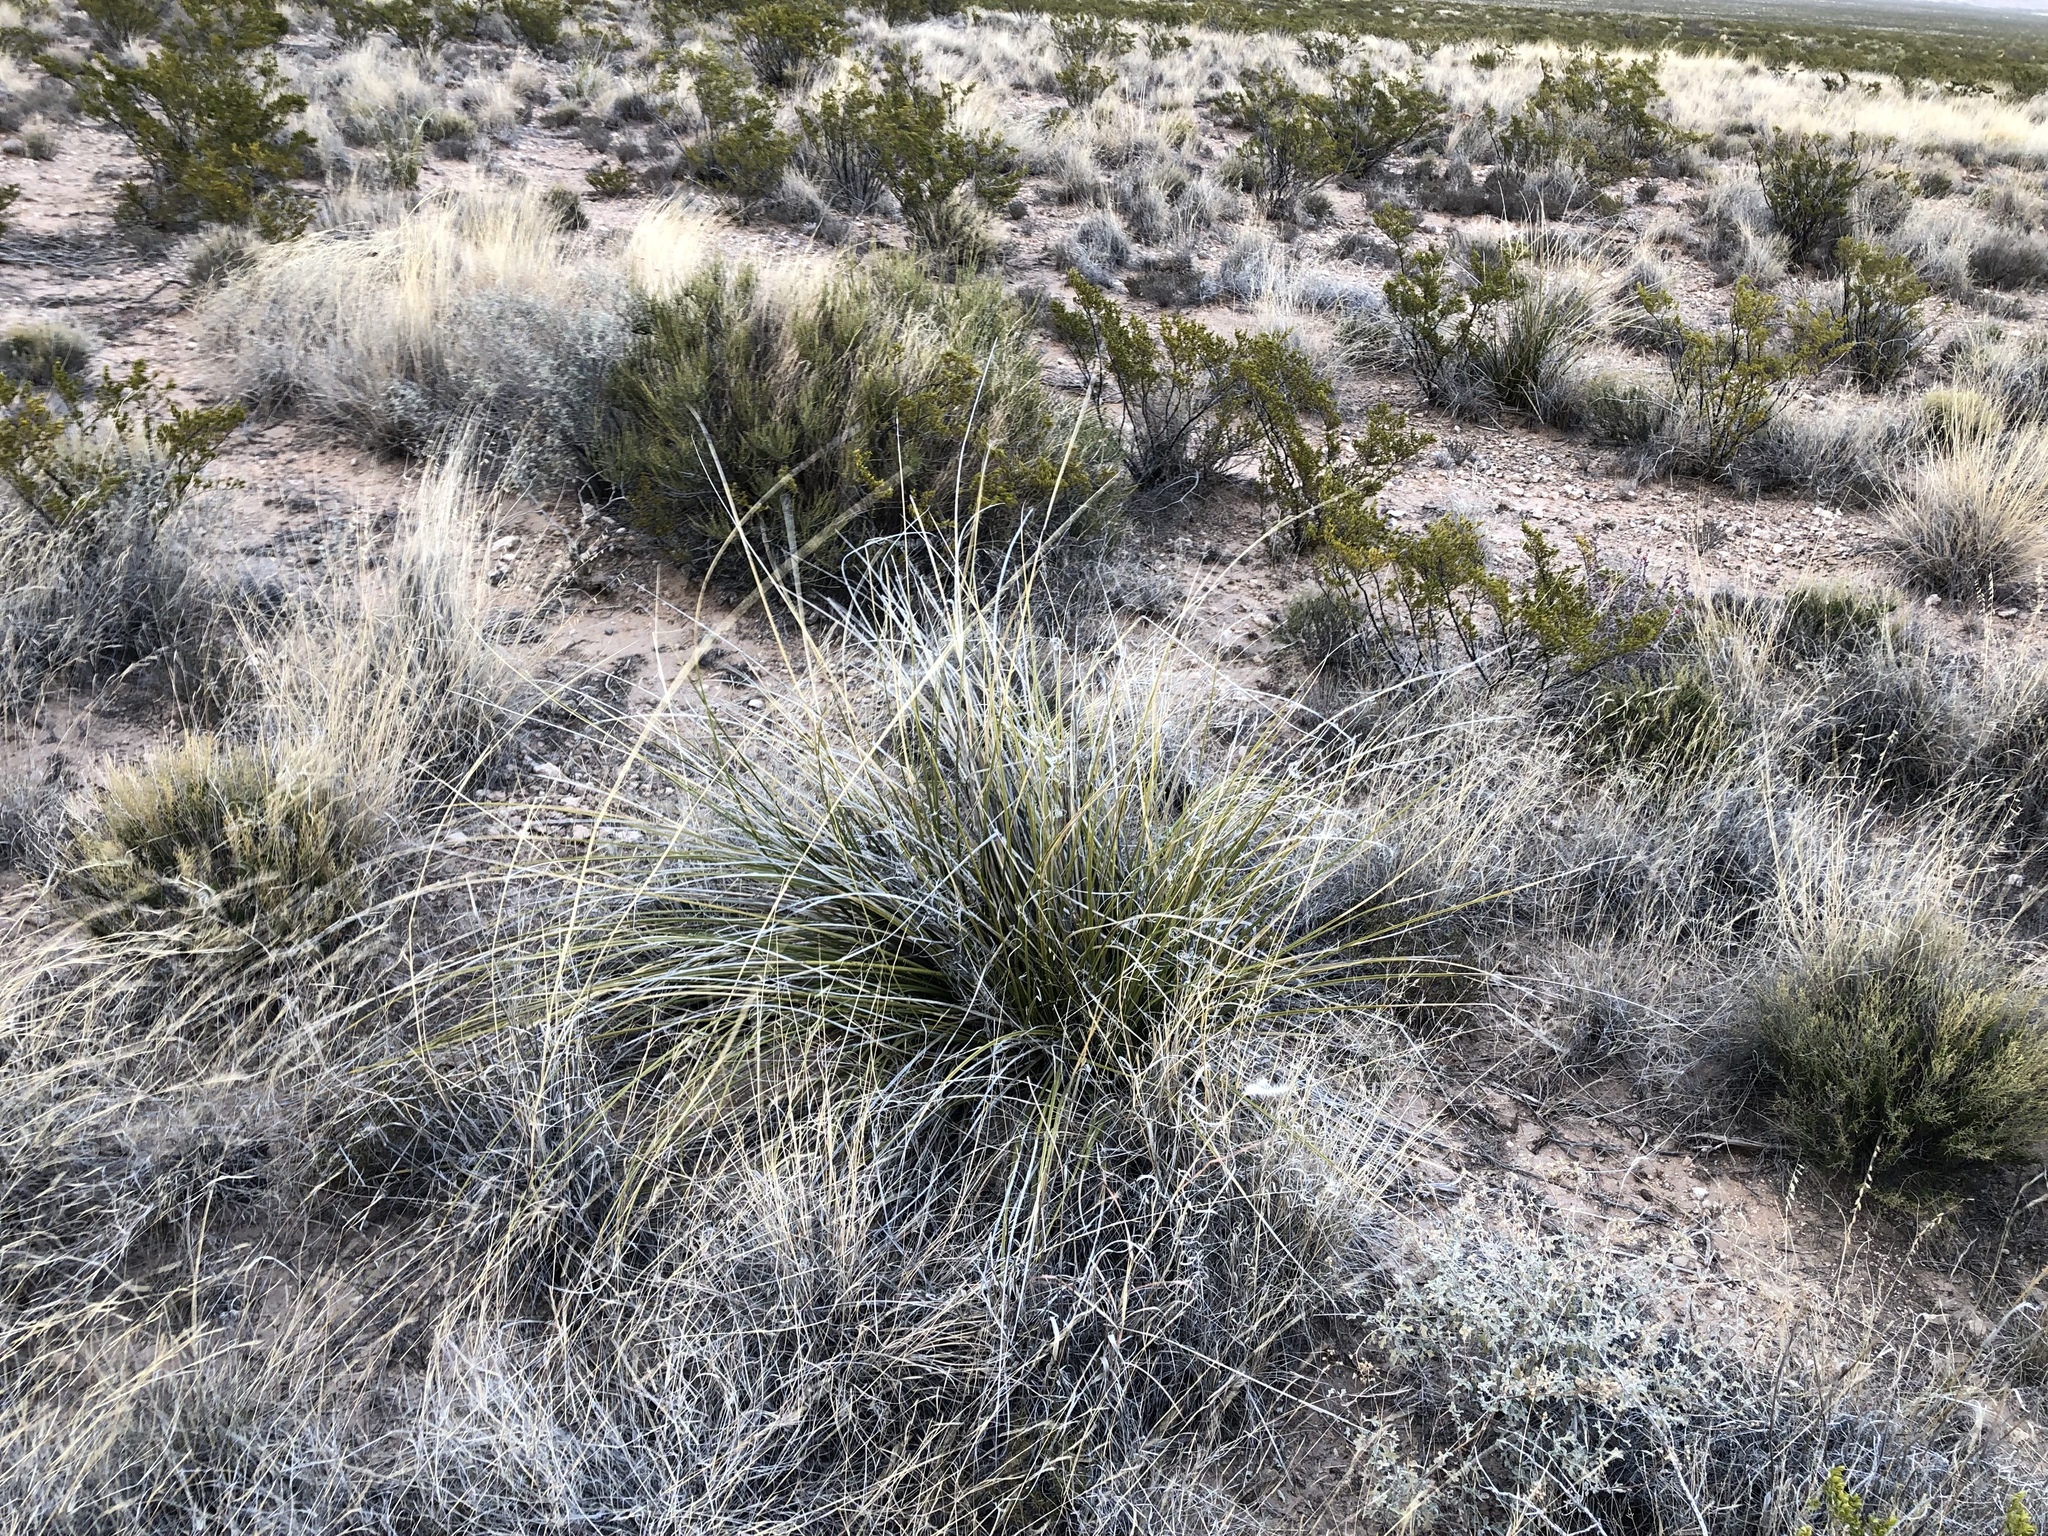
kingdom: Plantae
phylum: Tracheophyta
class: Liliopsida
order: Asparagales
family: Asparagaceae
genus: Nolina
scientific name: Nolina texana
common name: Texas sacahuiste
